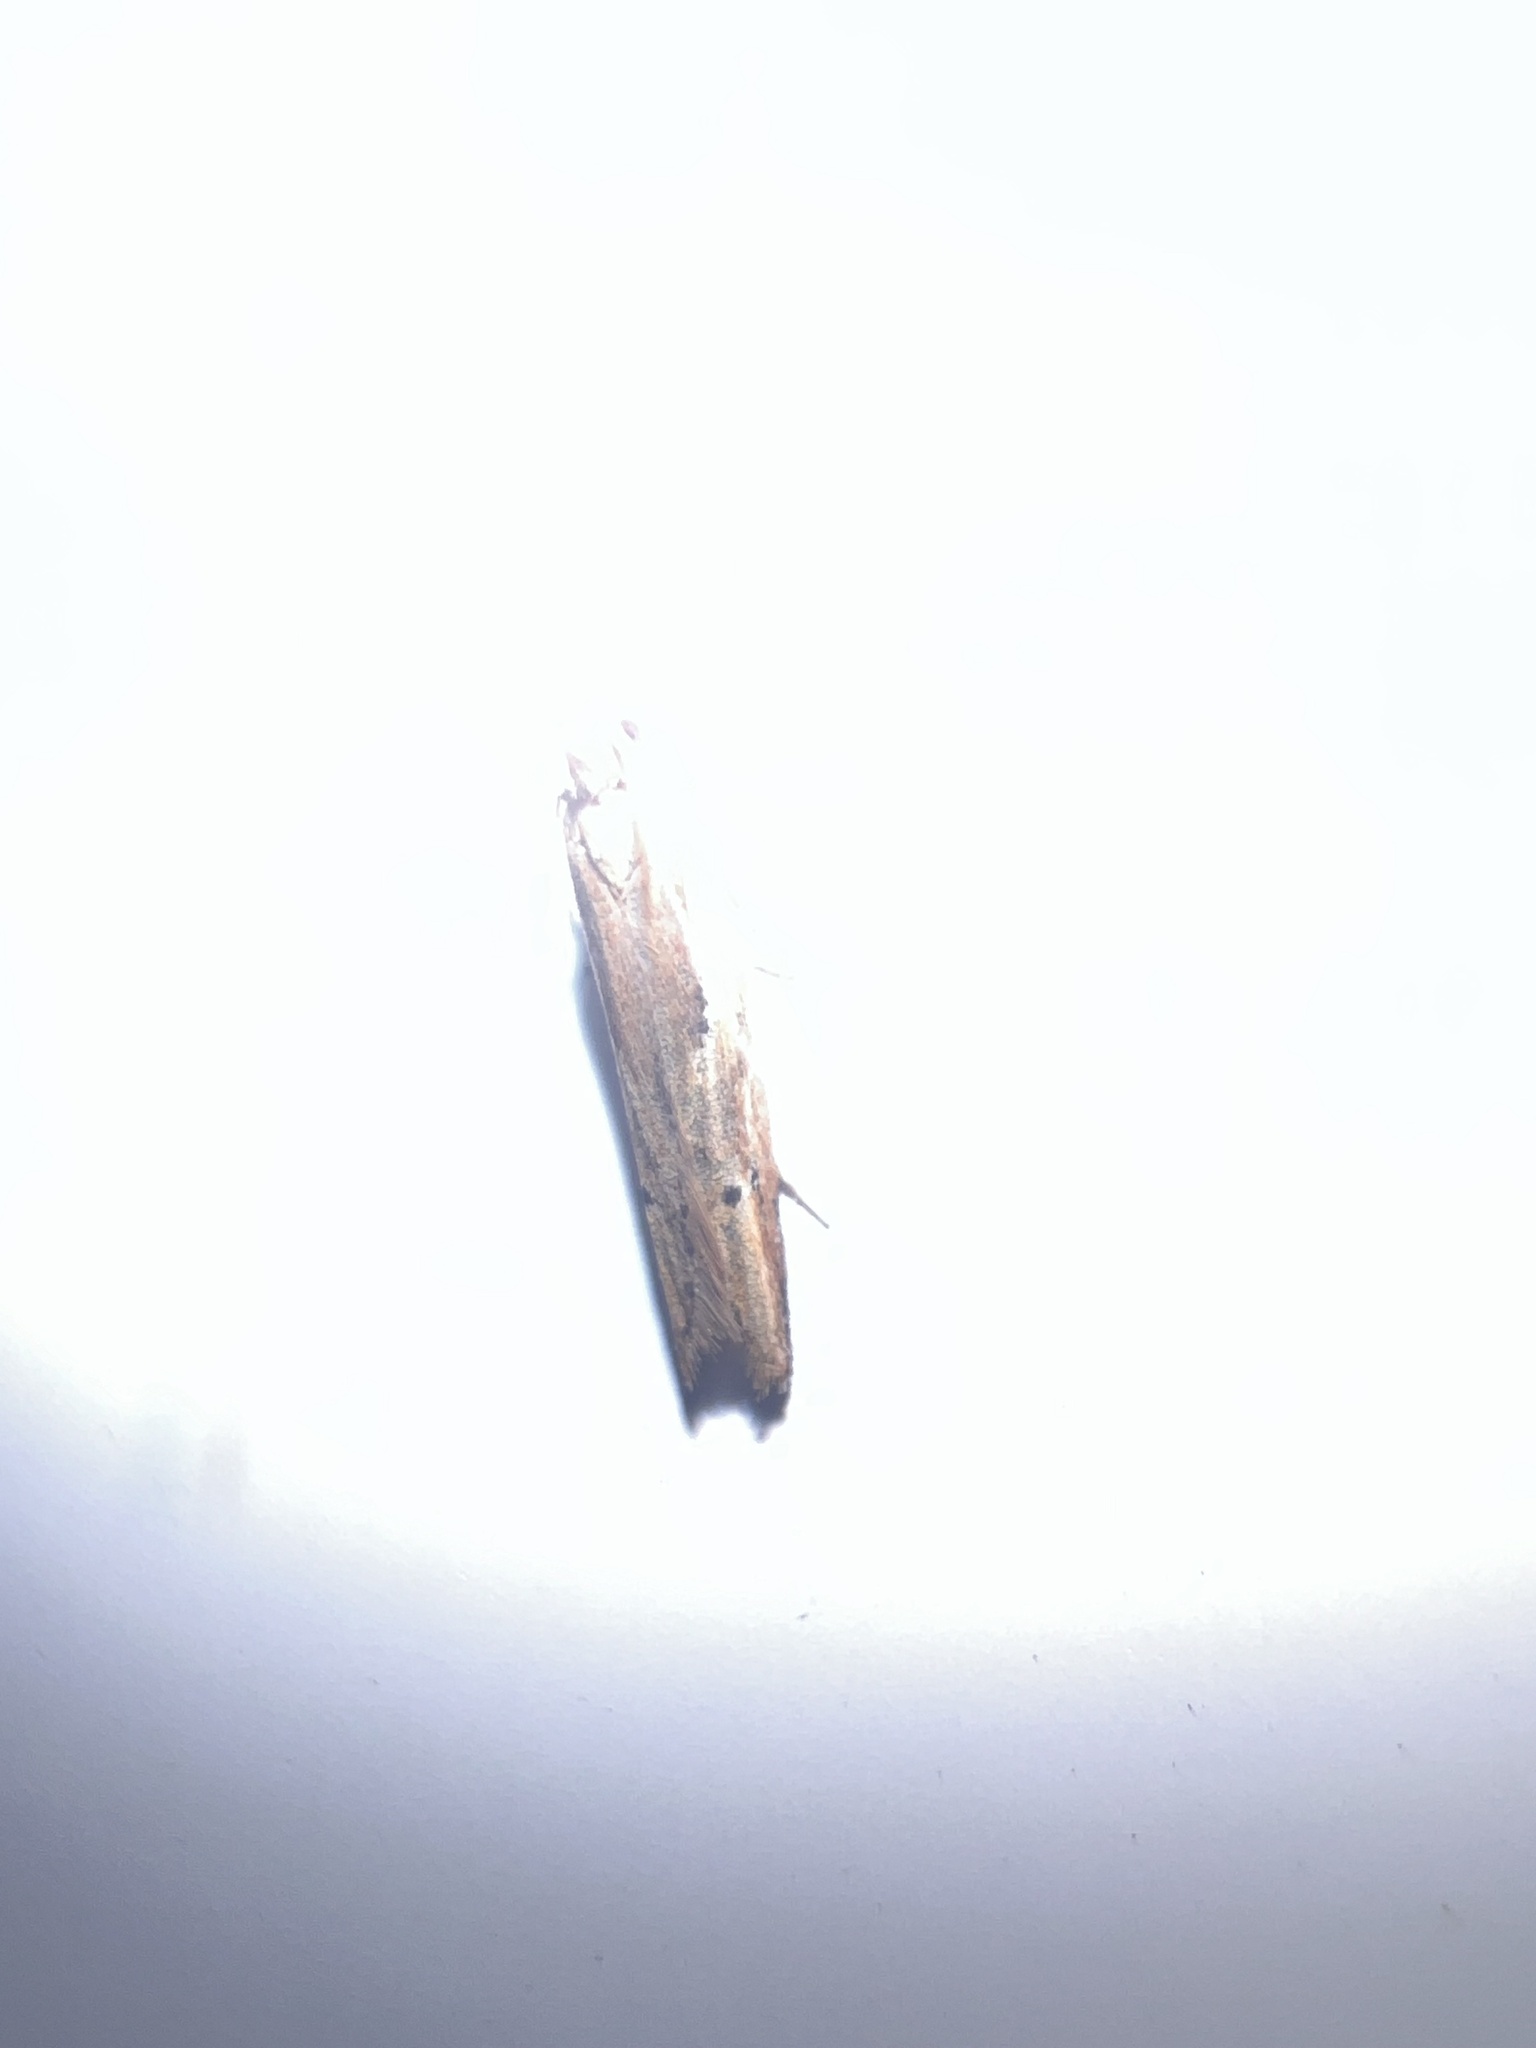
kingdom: Animalia
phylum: Arthropoda
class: Insecta
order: Lepidoptera
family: Depressariidae
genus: Eutorna
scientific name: Eutorna symmorpha
